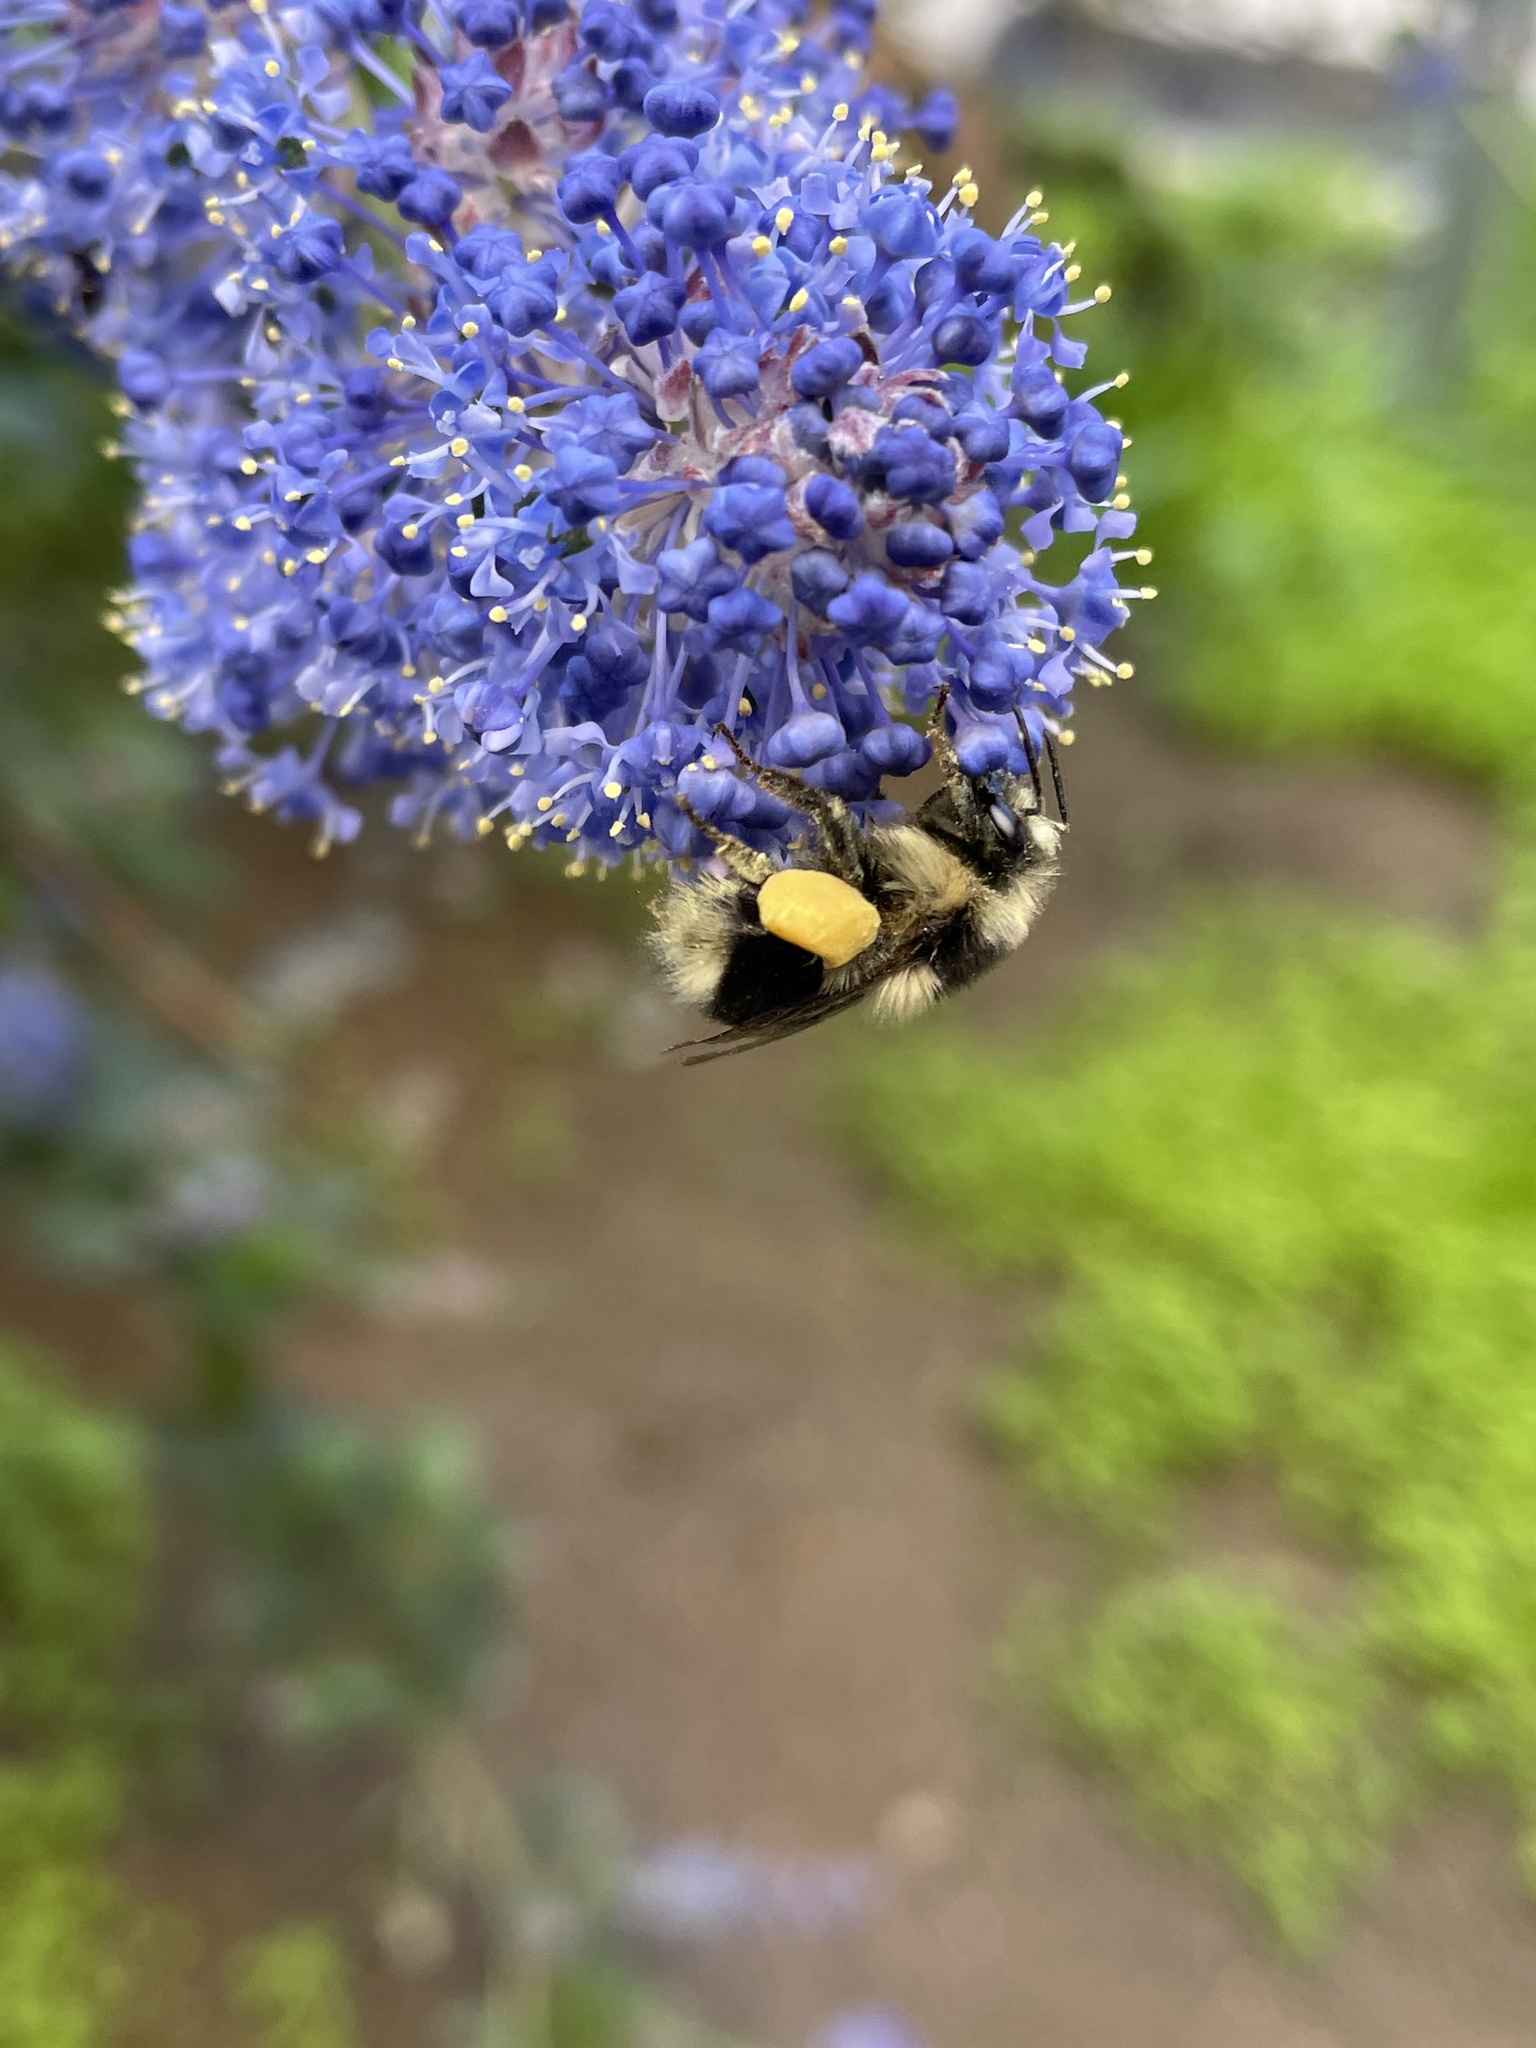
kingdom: Animalia
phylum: Arthropoda
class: Insecta
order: Hymenoptera
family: Apidae
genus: Bombus
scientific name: Bombus melanopygus
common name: Black tail bumble bee
